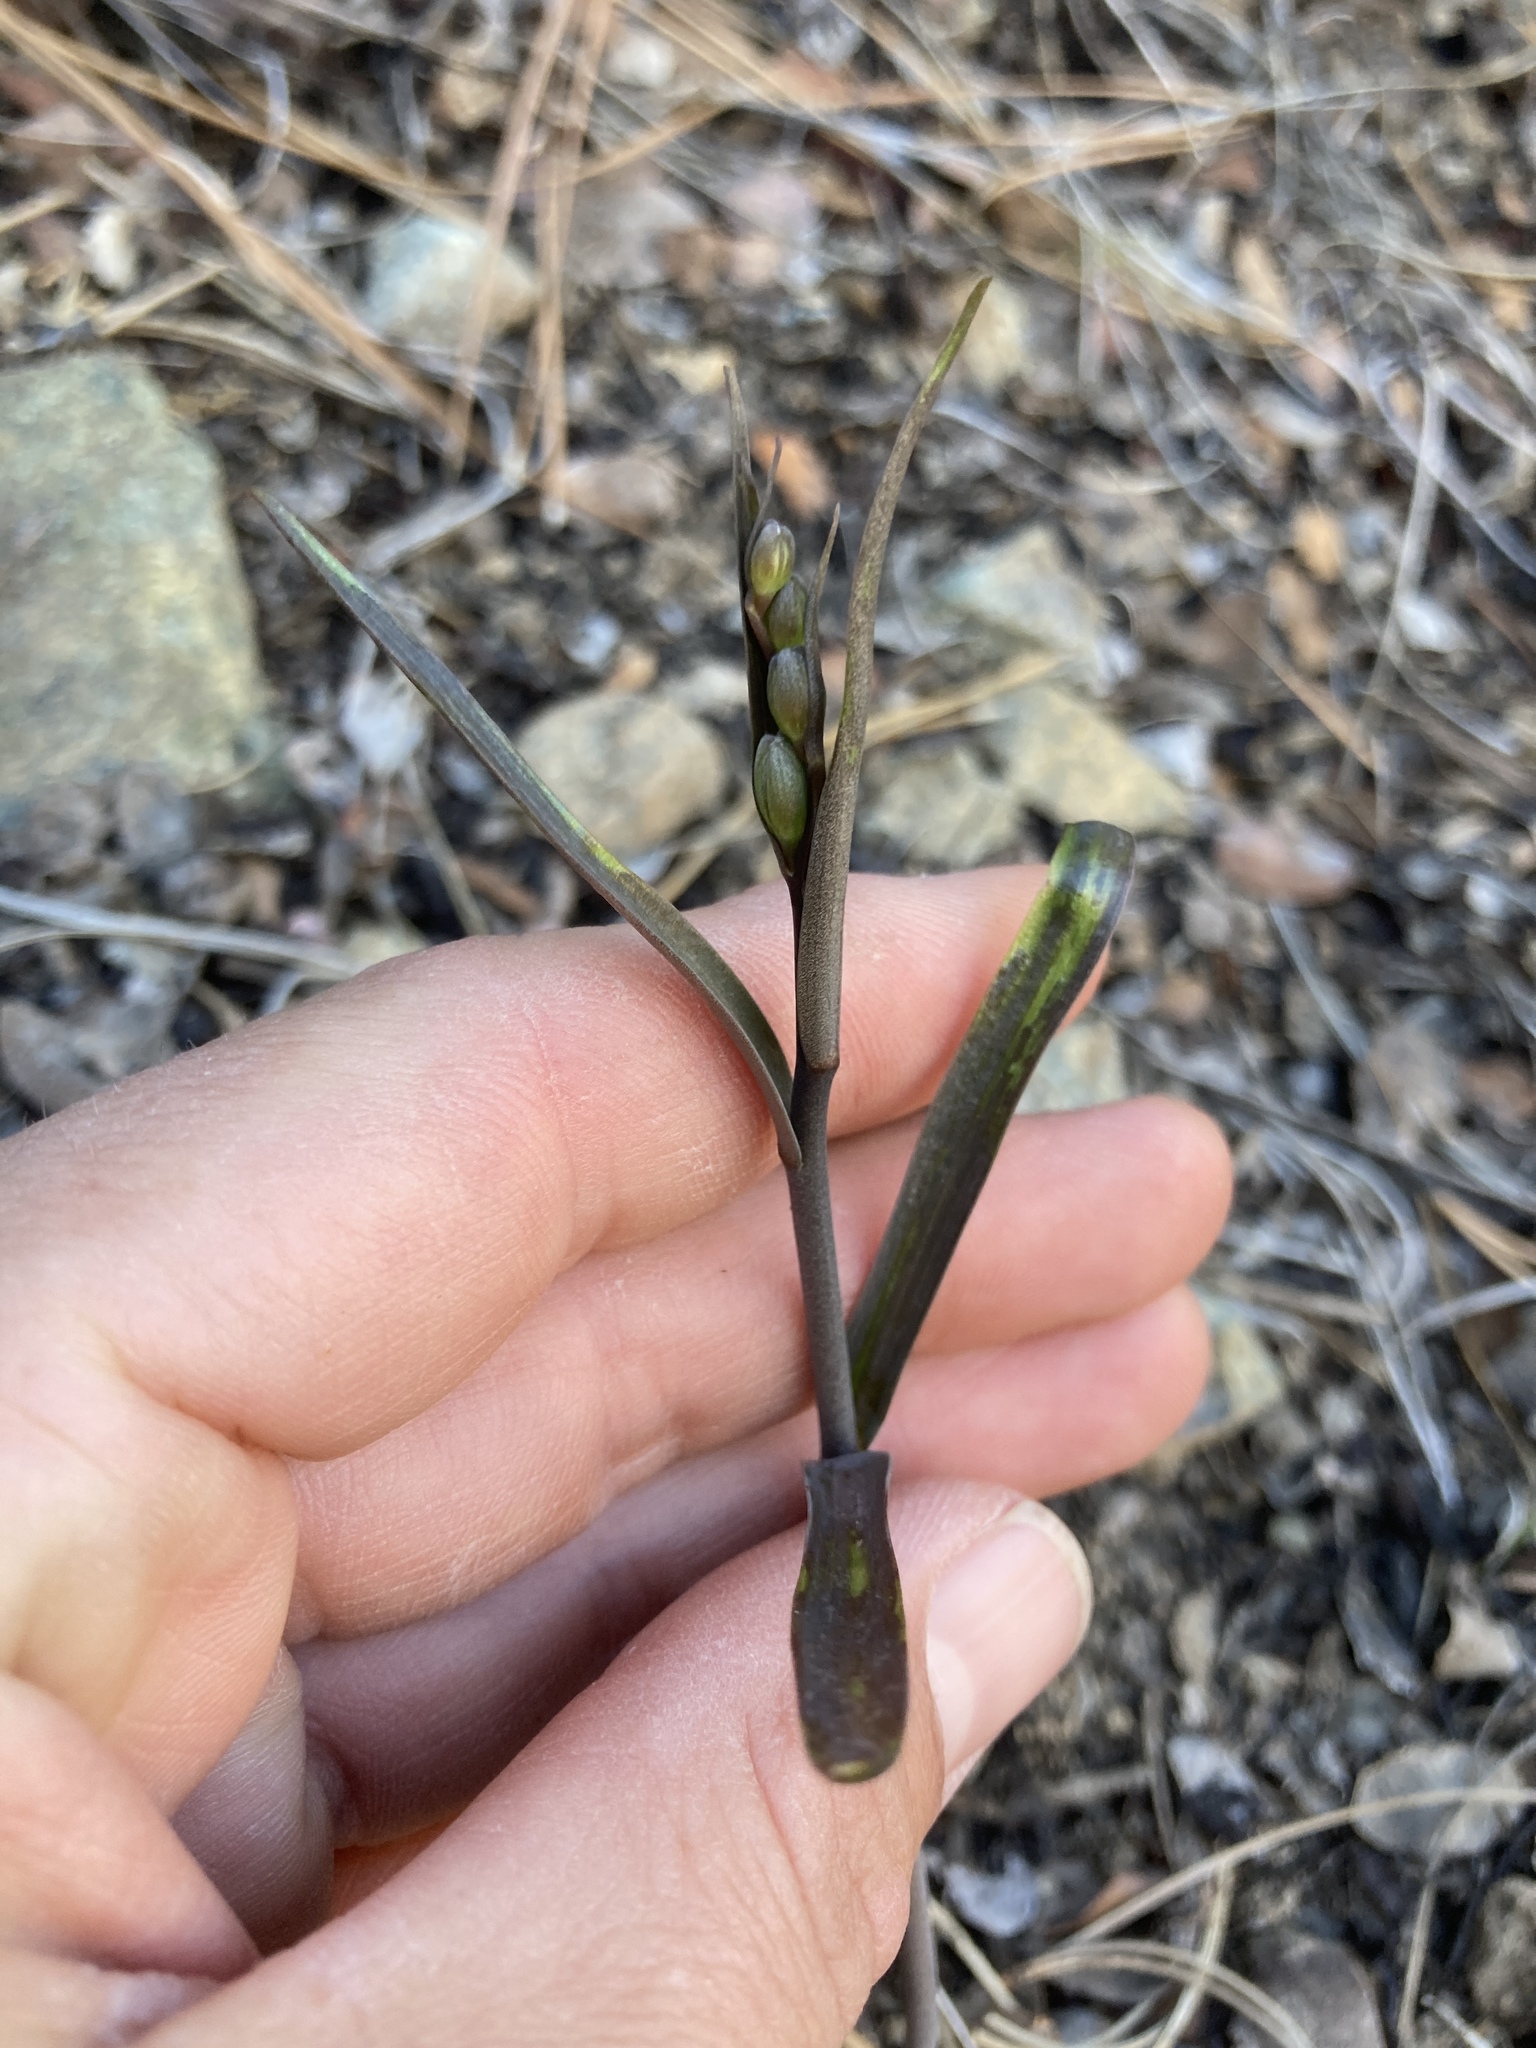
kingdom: Plantae
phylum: Tracheophyta
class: Liliopsida
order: Liliales
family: Liliaceae
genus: Fritillaria
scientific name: Fritillaria viridea
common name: San benito fritillary
